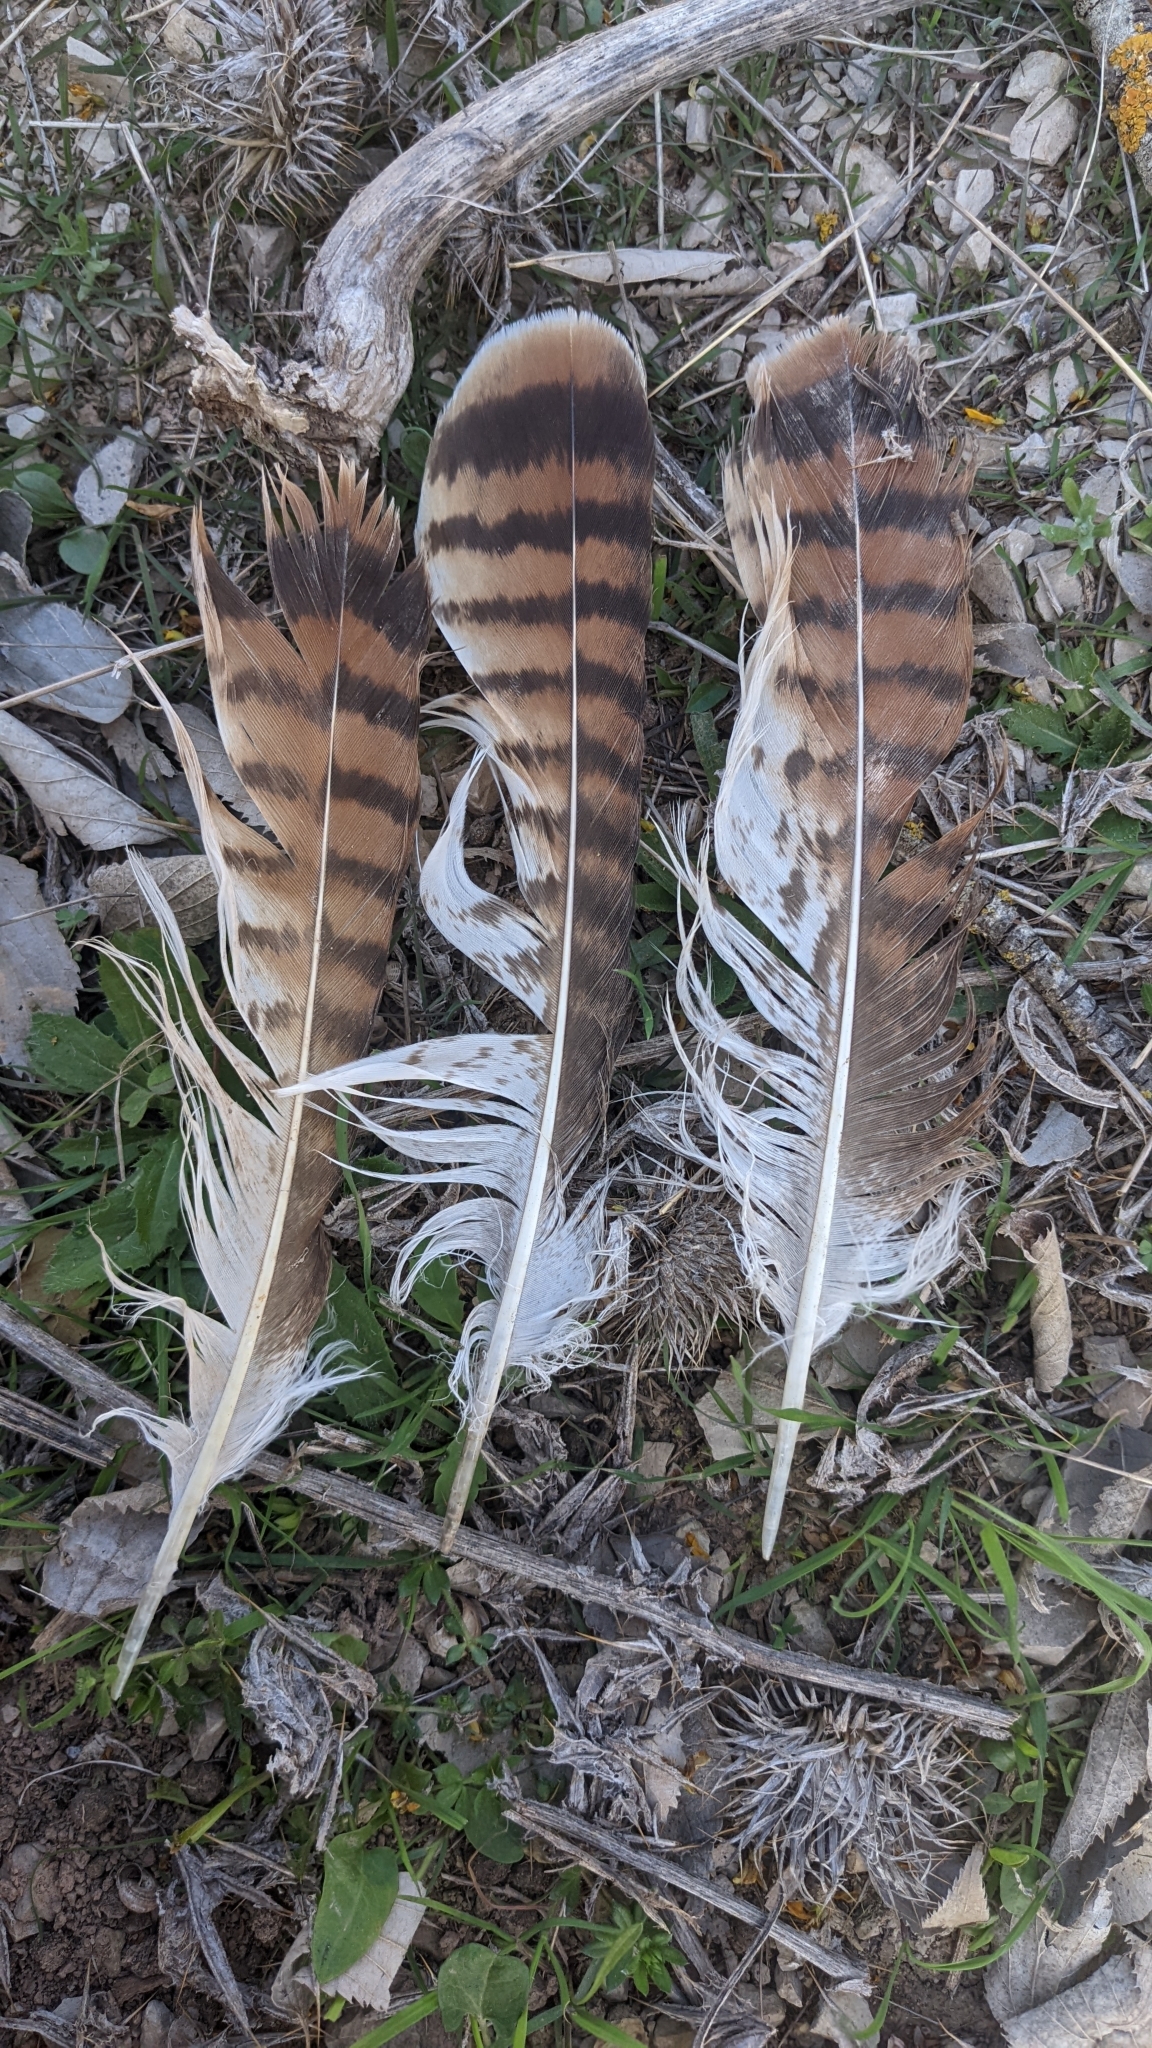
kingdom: Animalia
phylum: Chordata
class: Aves
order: Accipitriformes
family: Accipitridae
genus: Buteo
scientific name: Buteo buteo
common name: Common buzzard
